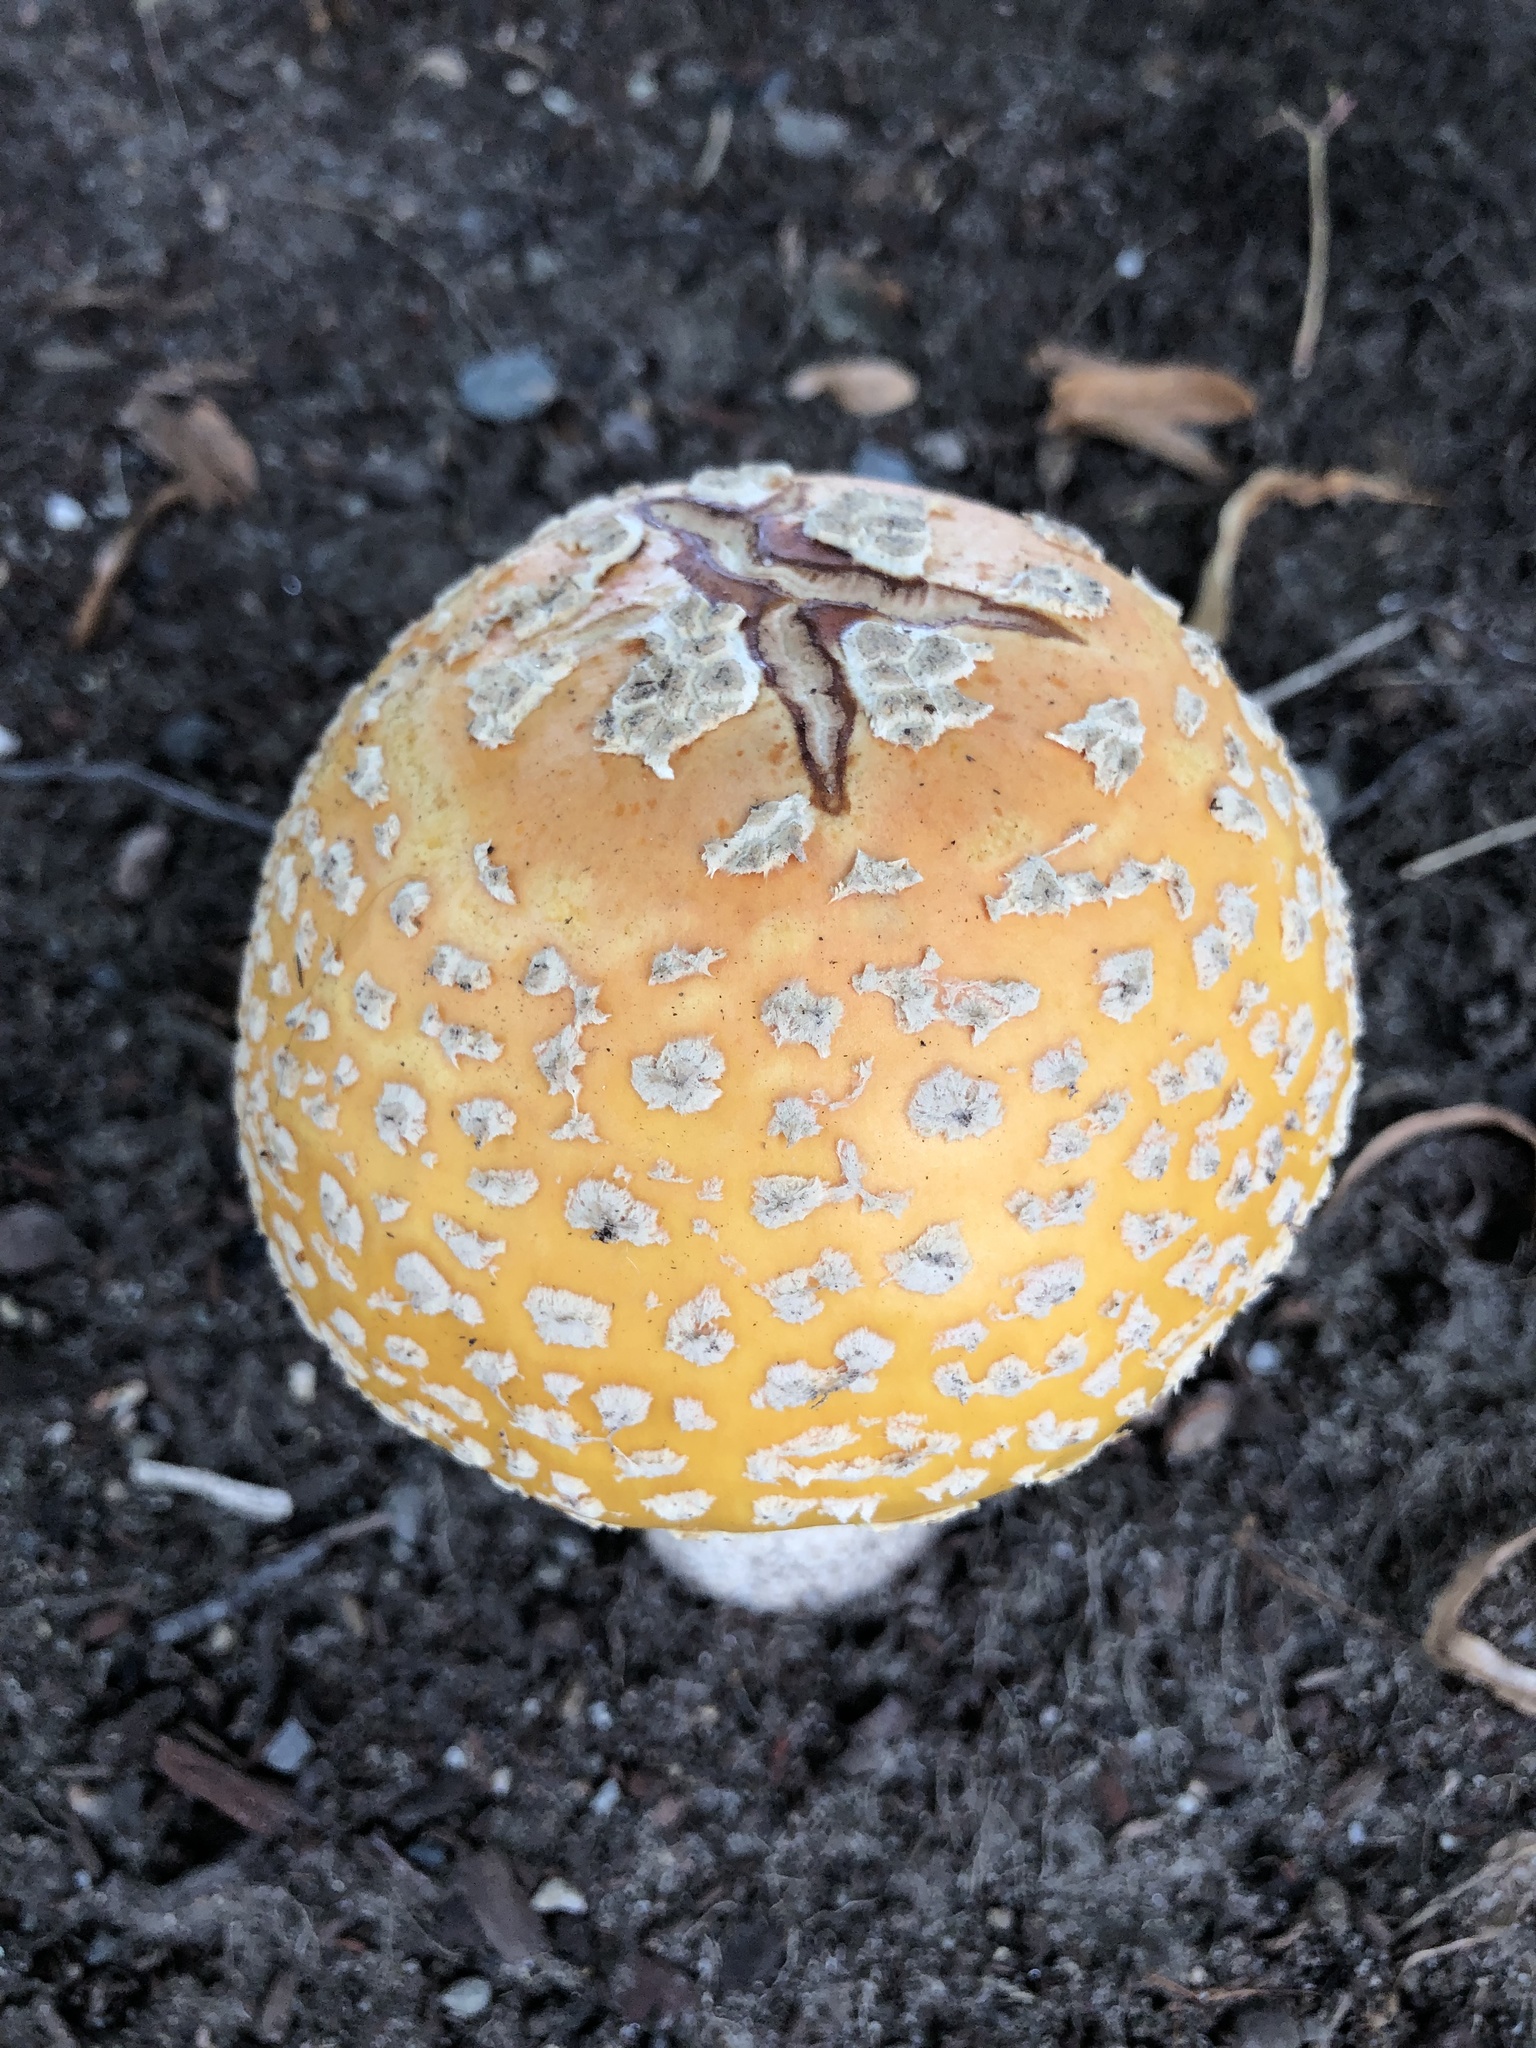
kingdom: Fungi
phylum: Basidiomycota
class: Agaricomycetes
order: Agaricales
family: Amanitaceae
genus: Amanita
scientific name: Amanita muscaria
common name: Fly agaric
